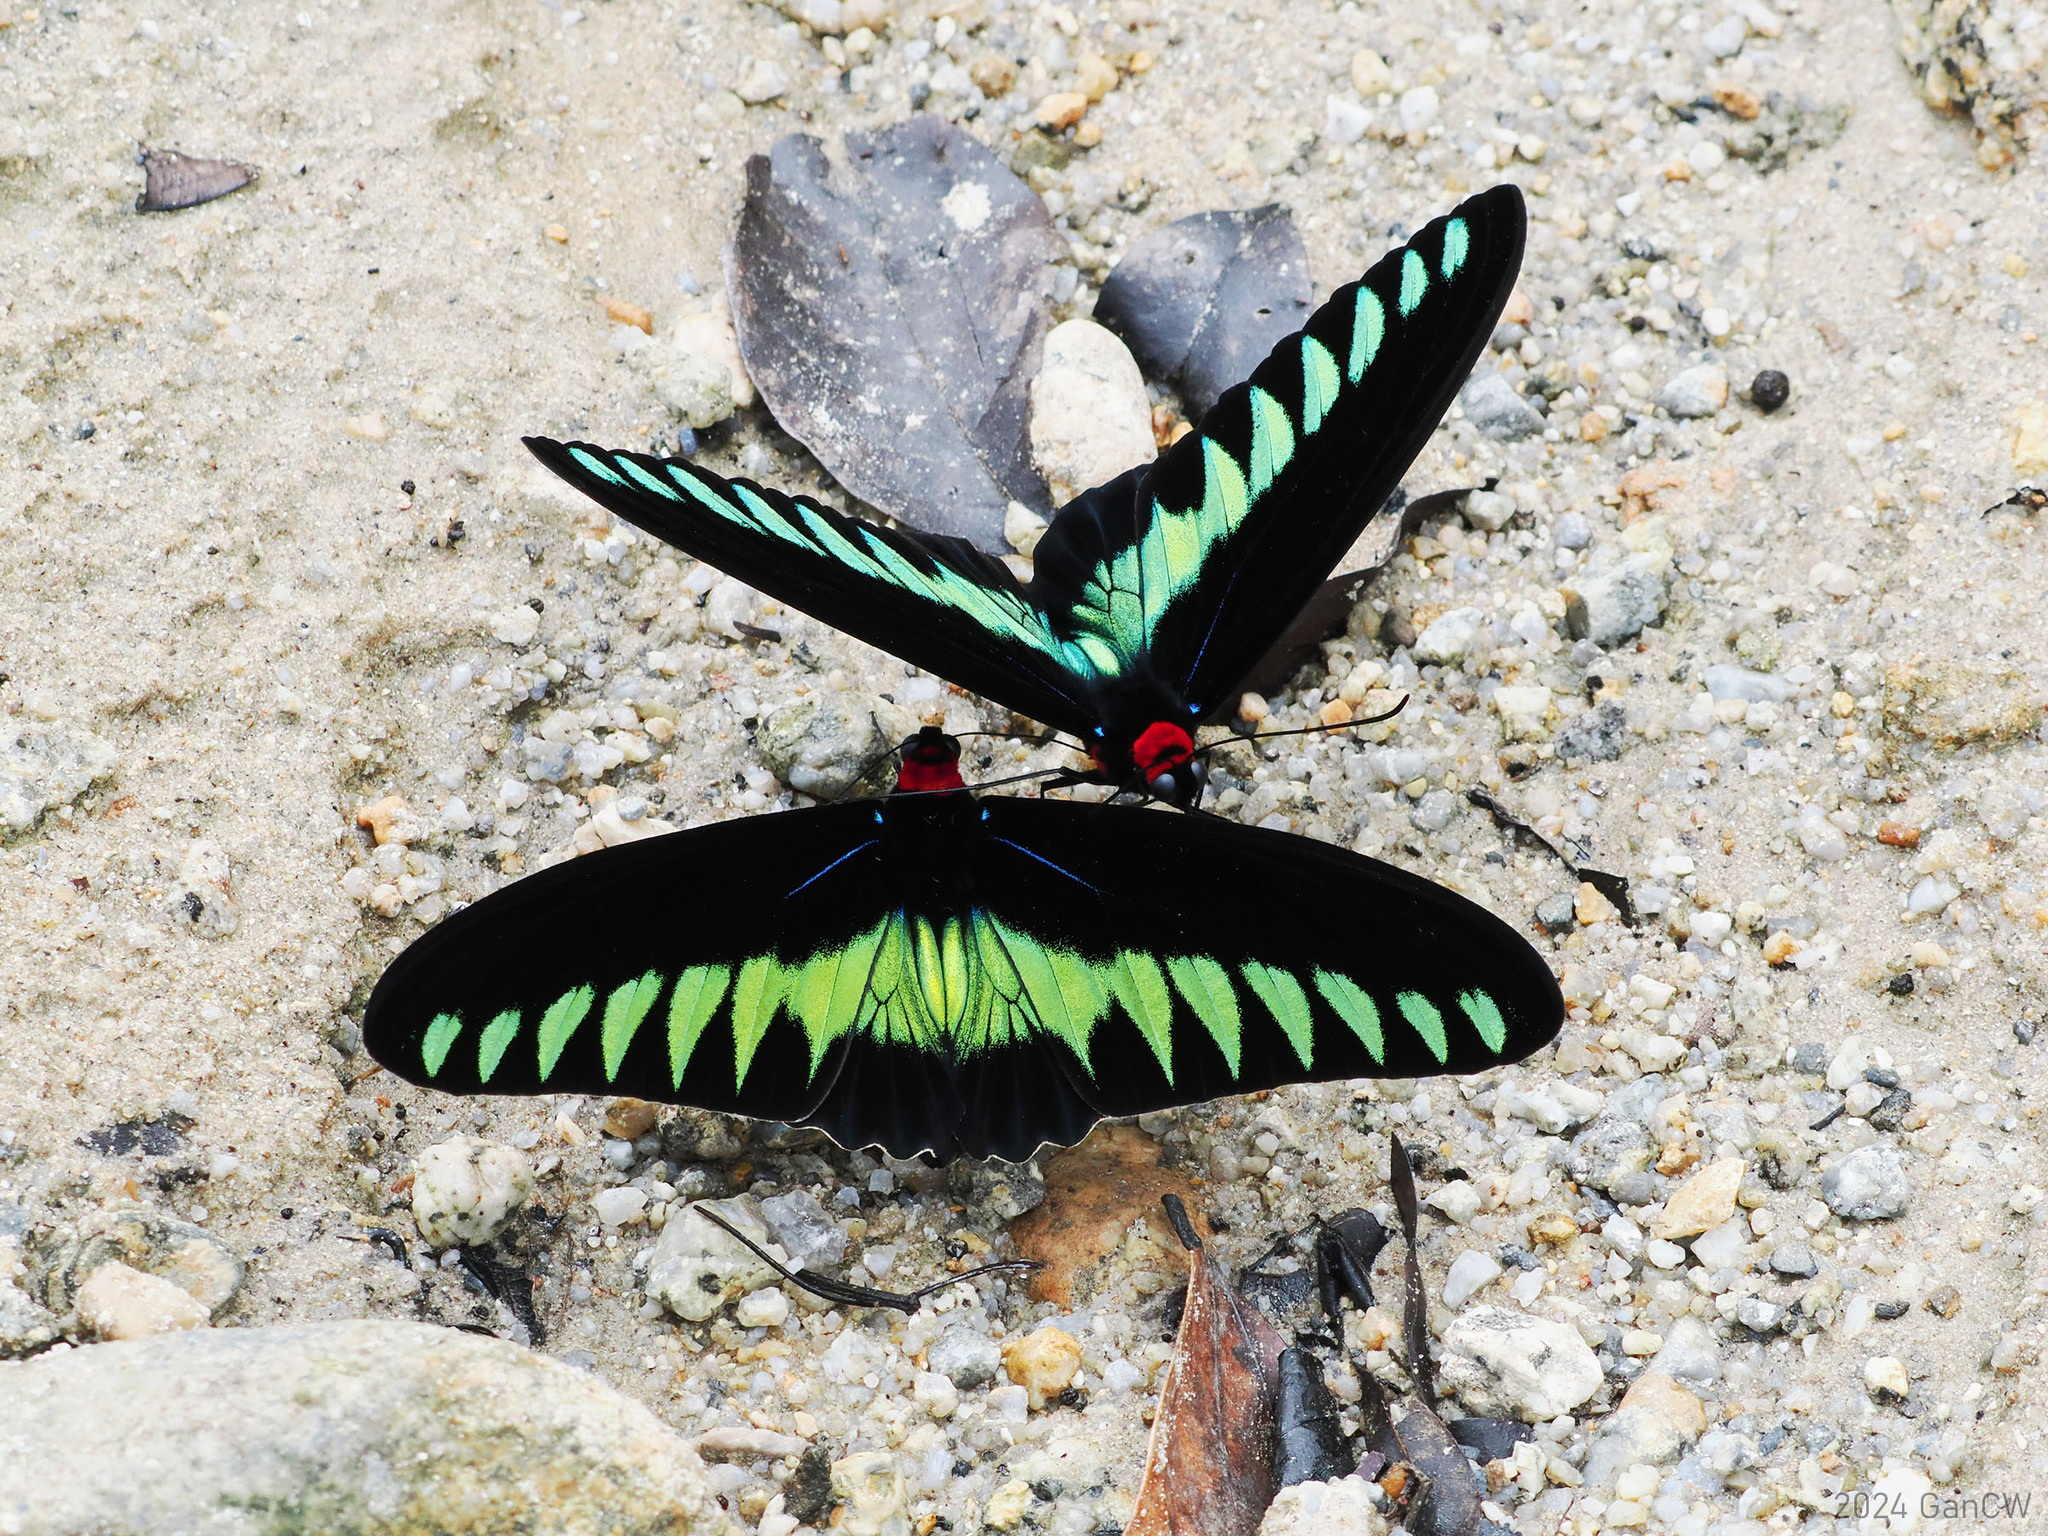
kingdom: Animalia
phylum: Arthropoda
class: Insecta
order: Lepidoptera
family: Papilionidae
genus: Trogonoptera
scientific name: Trogonoptera brookiana
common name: Raja brooke's birdwing
